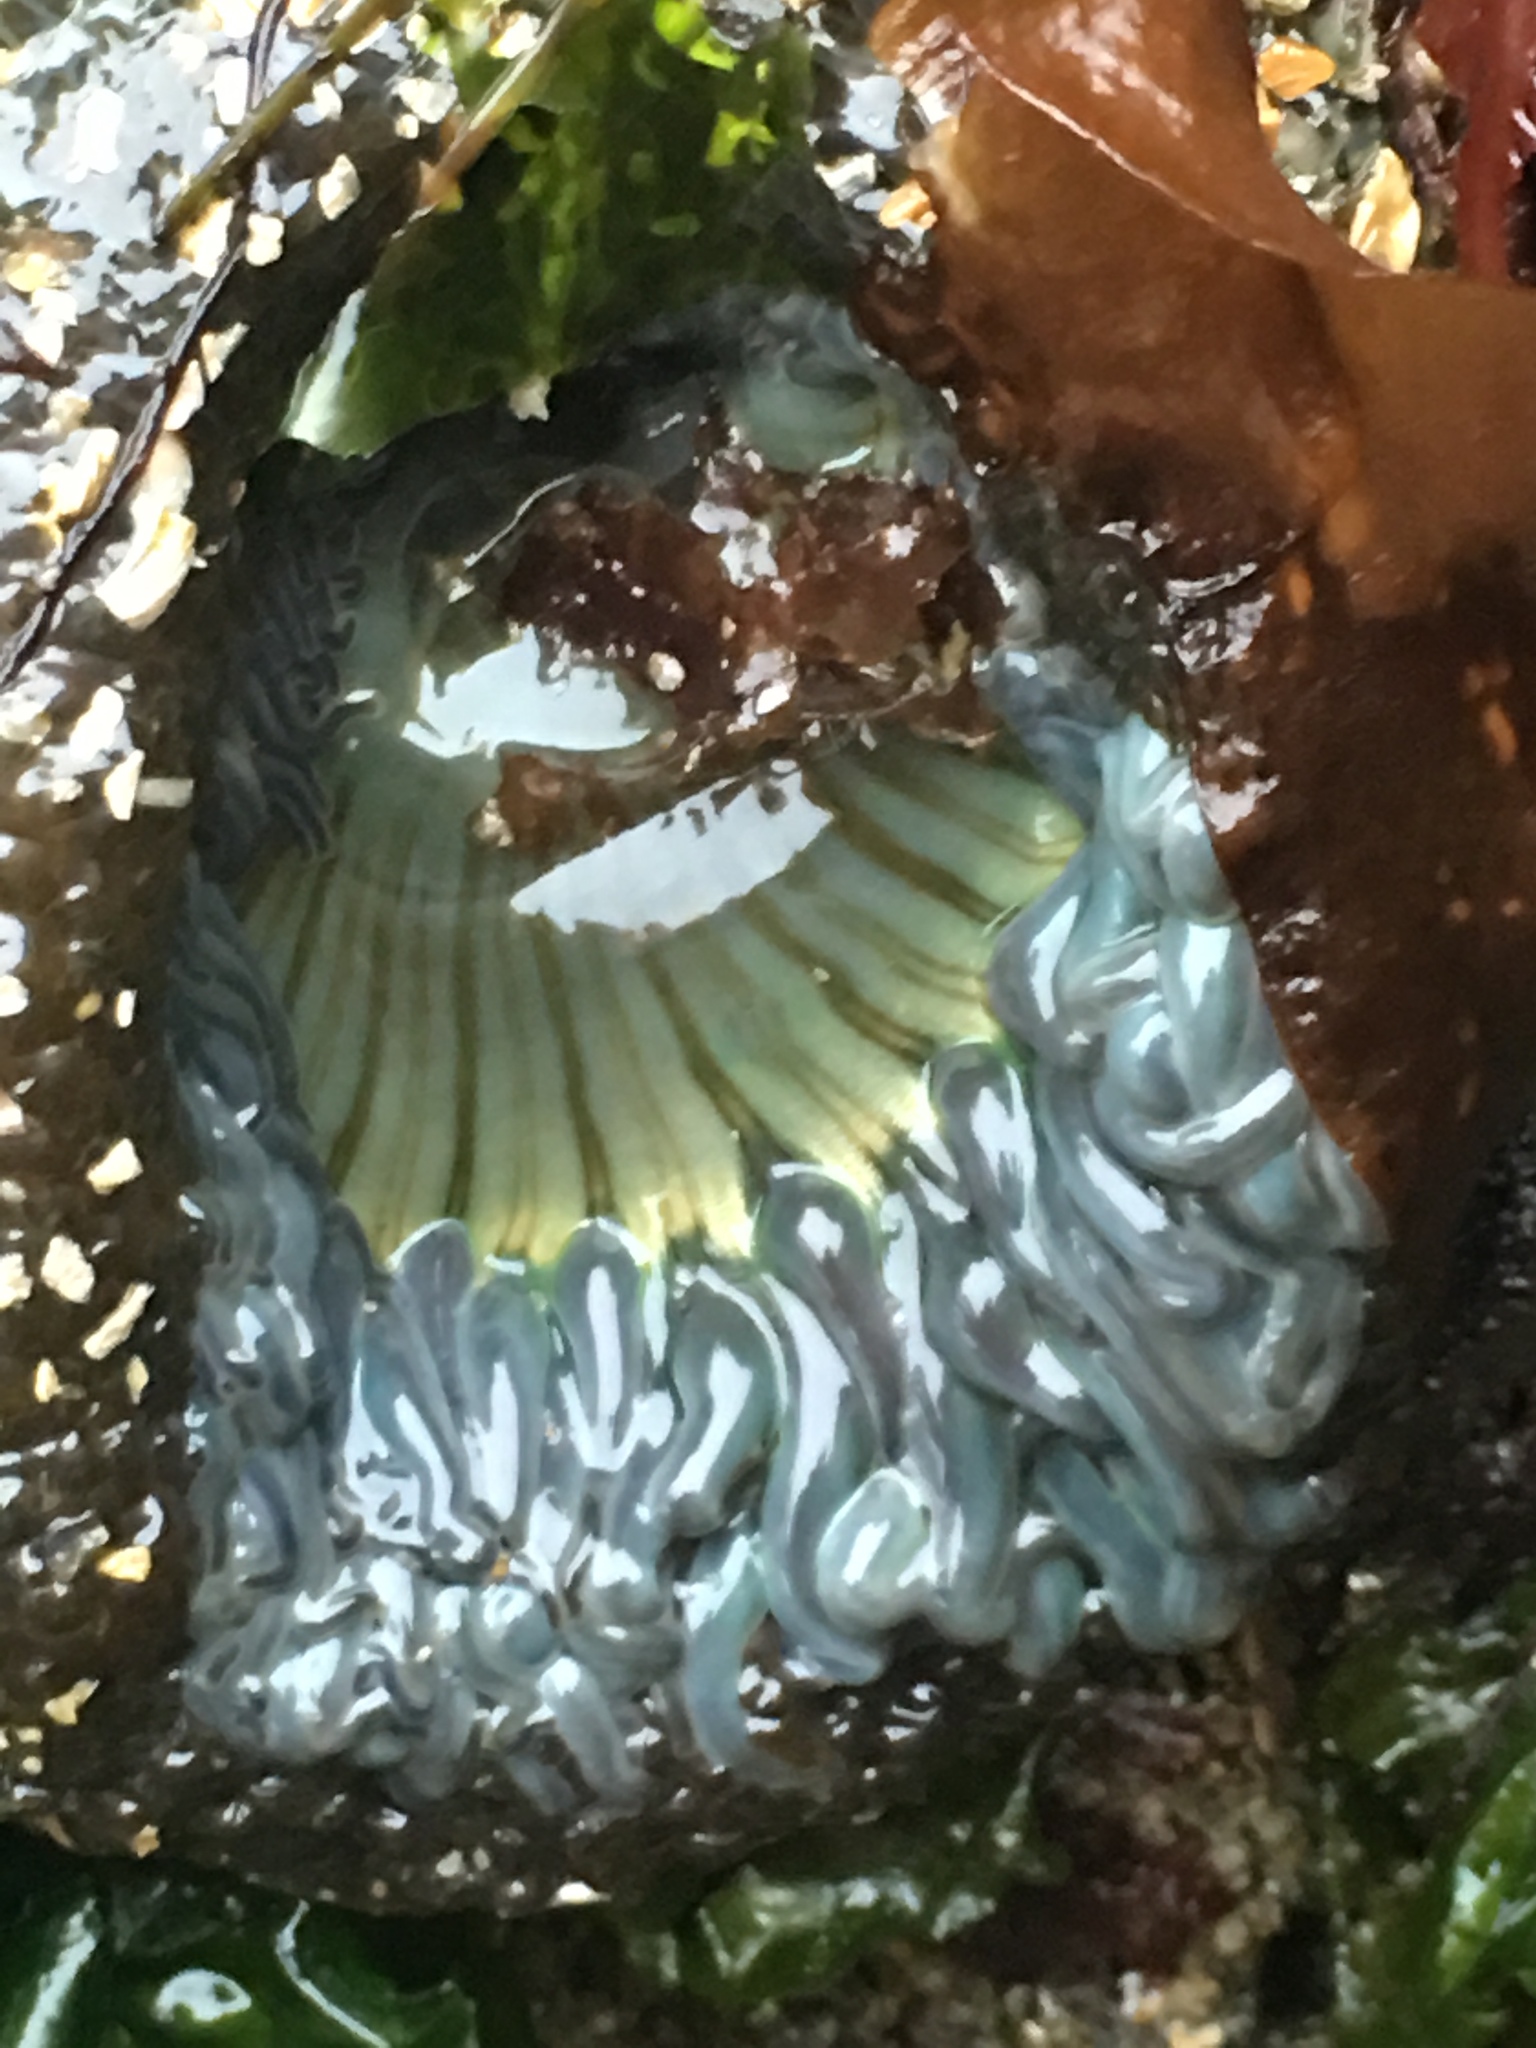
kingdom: Animalia
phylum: Cnidaria
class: Anthozoa
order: Actiniaria
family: Actiniidae
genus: Anthopleura
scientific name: Anthopleura sola
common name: Sun anemone
